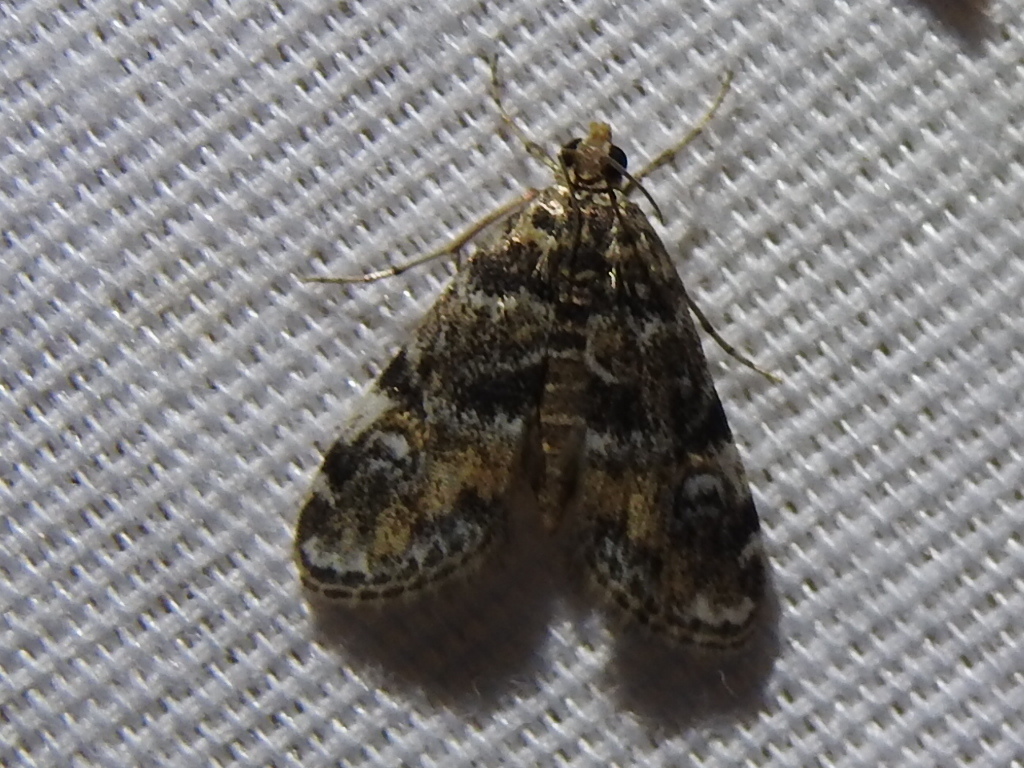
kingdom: Animalia
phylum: Arthropoda
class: Insecta
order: Lepidoptera
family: Crambidae
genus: Elophila
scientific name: Elophila obliteralis
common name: Waterlily leafcutter moth
